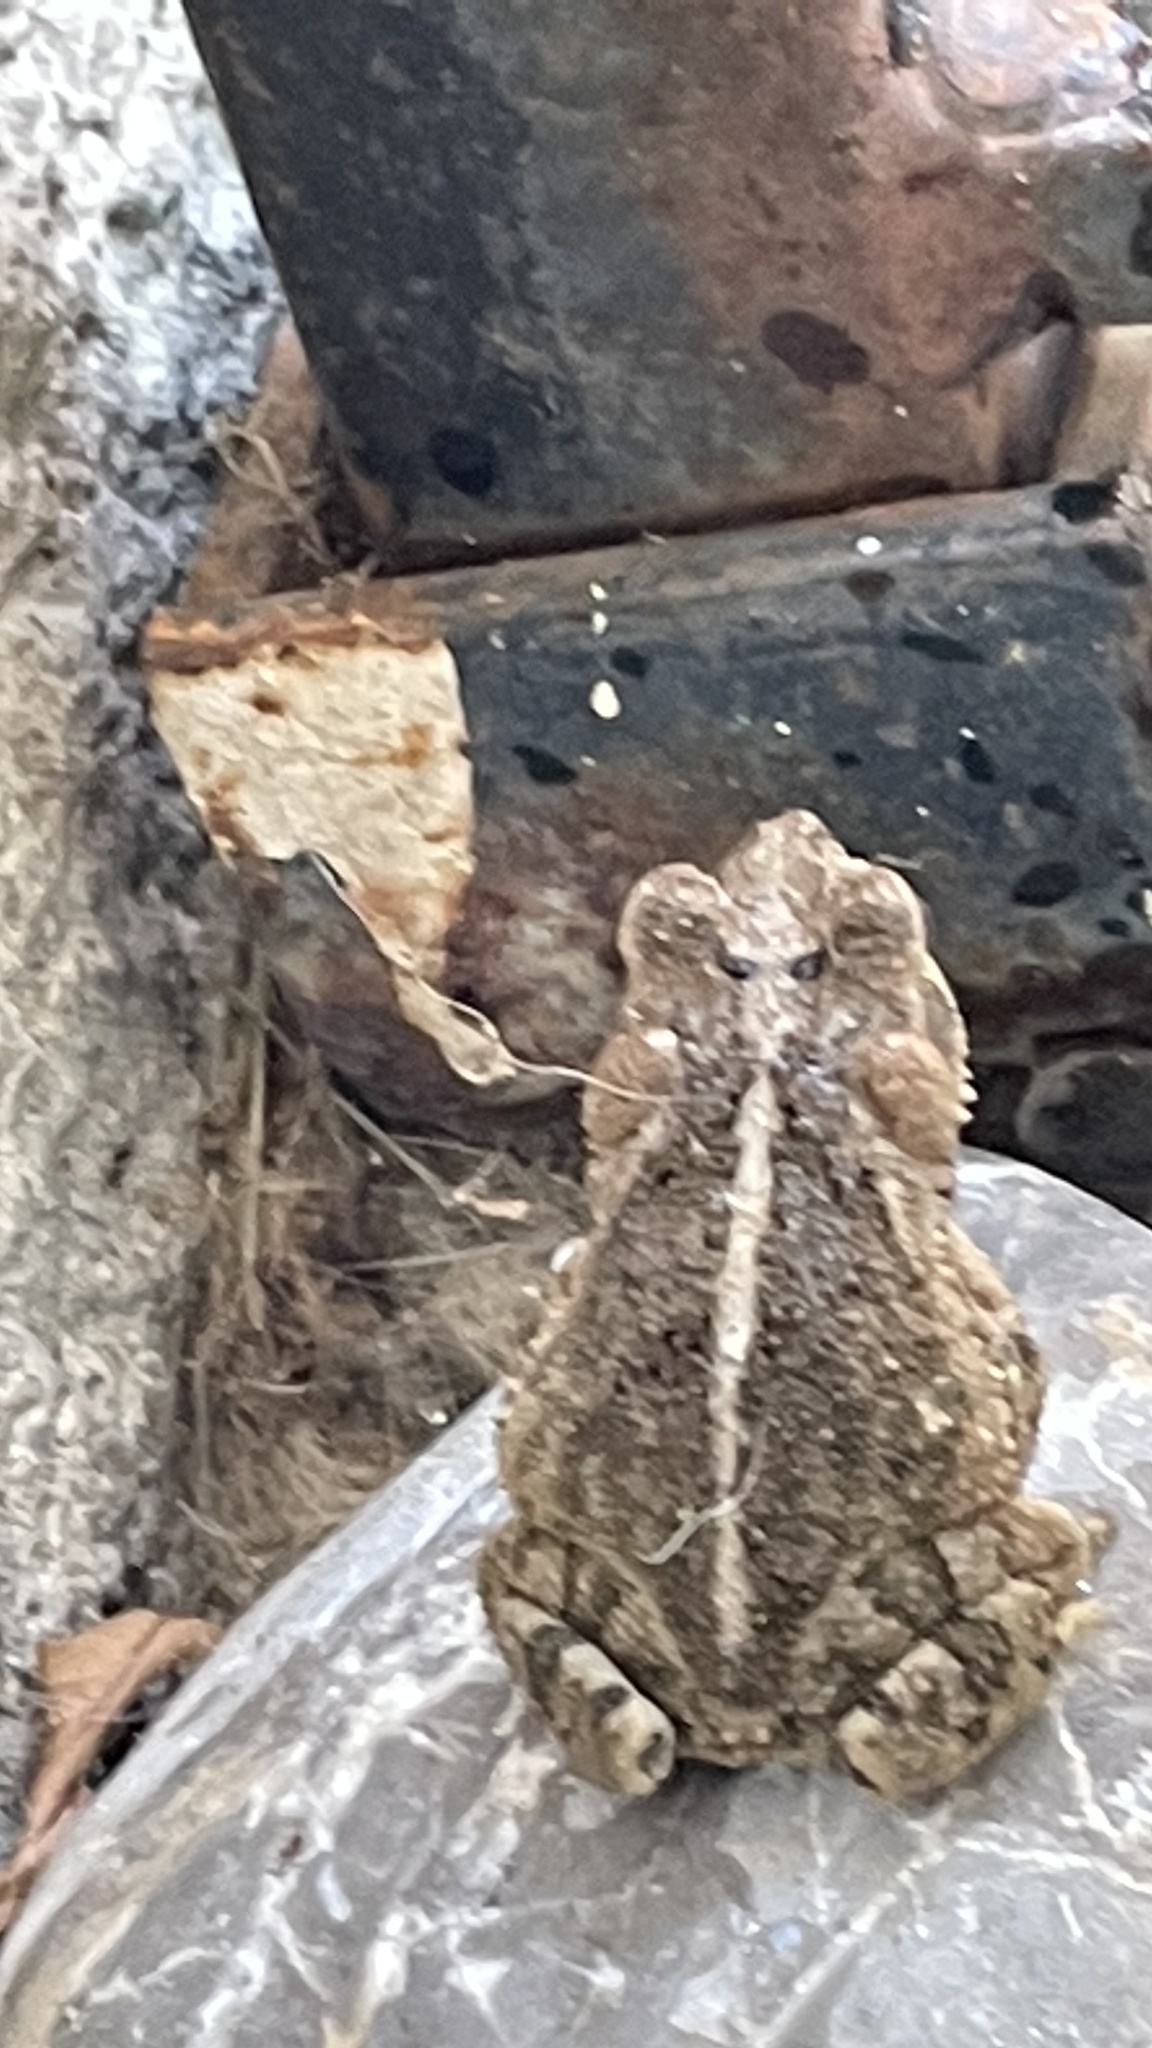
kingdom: Animalia
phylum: Chordata
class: Amphibia
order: Anura
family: Bufonidae
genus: Incilius
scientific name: Incilius nebulifer
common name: Gulf coast toad
